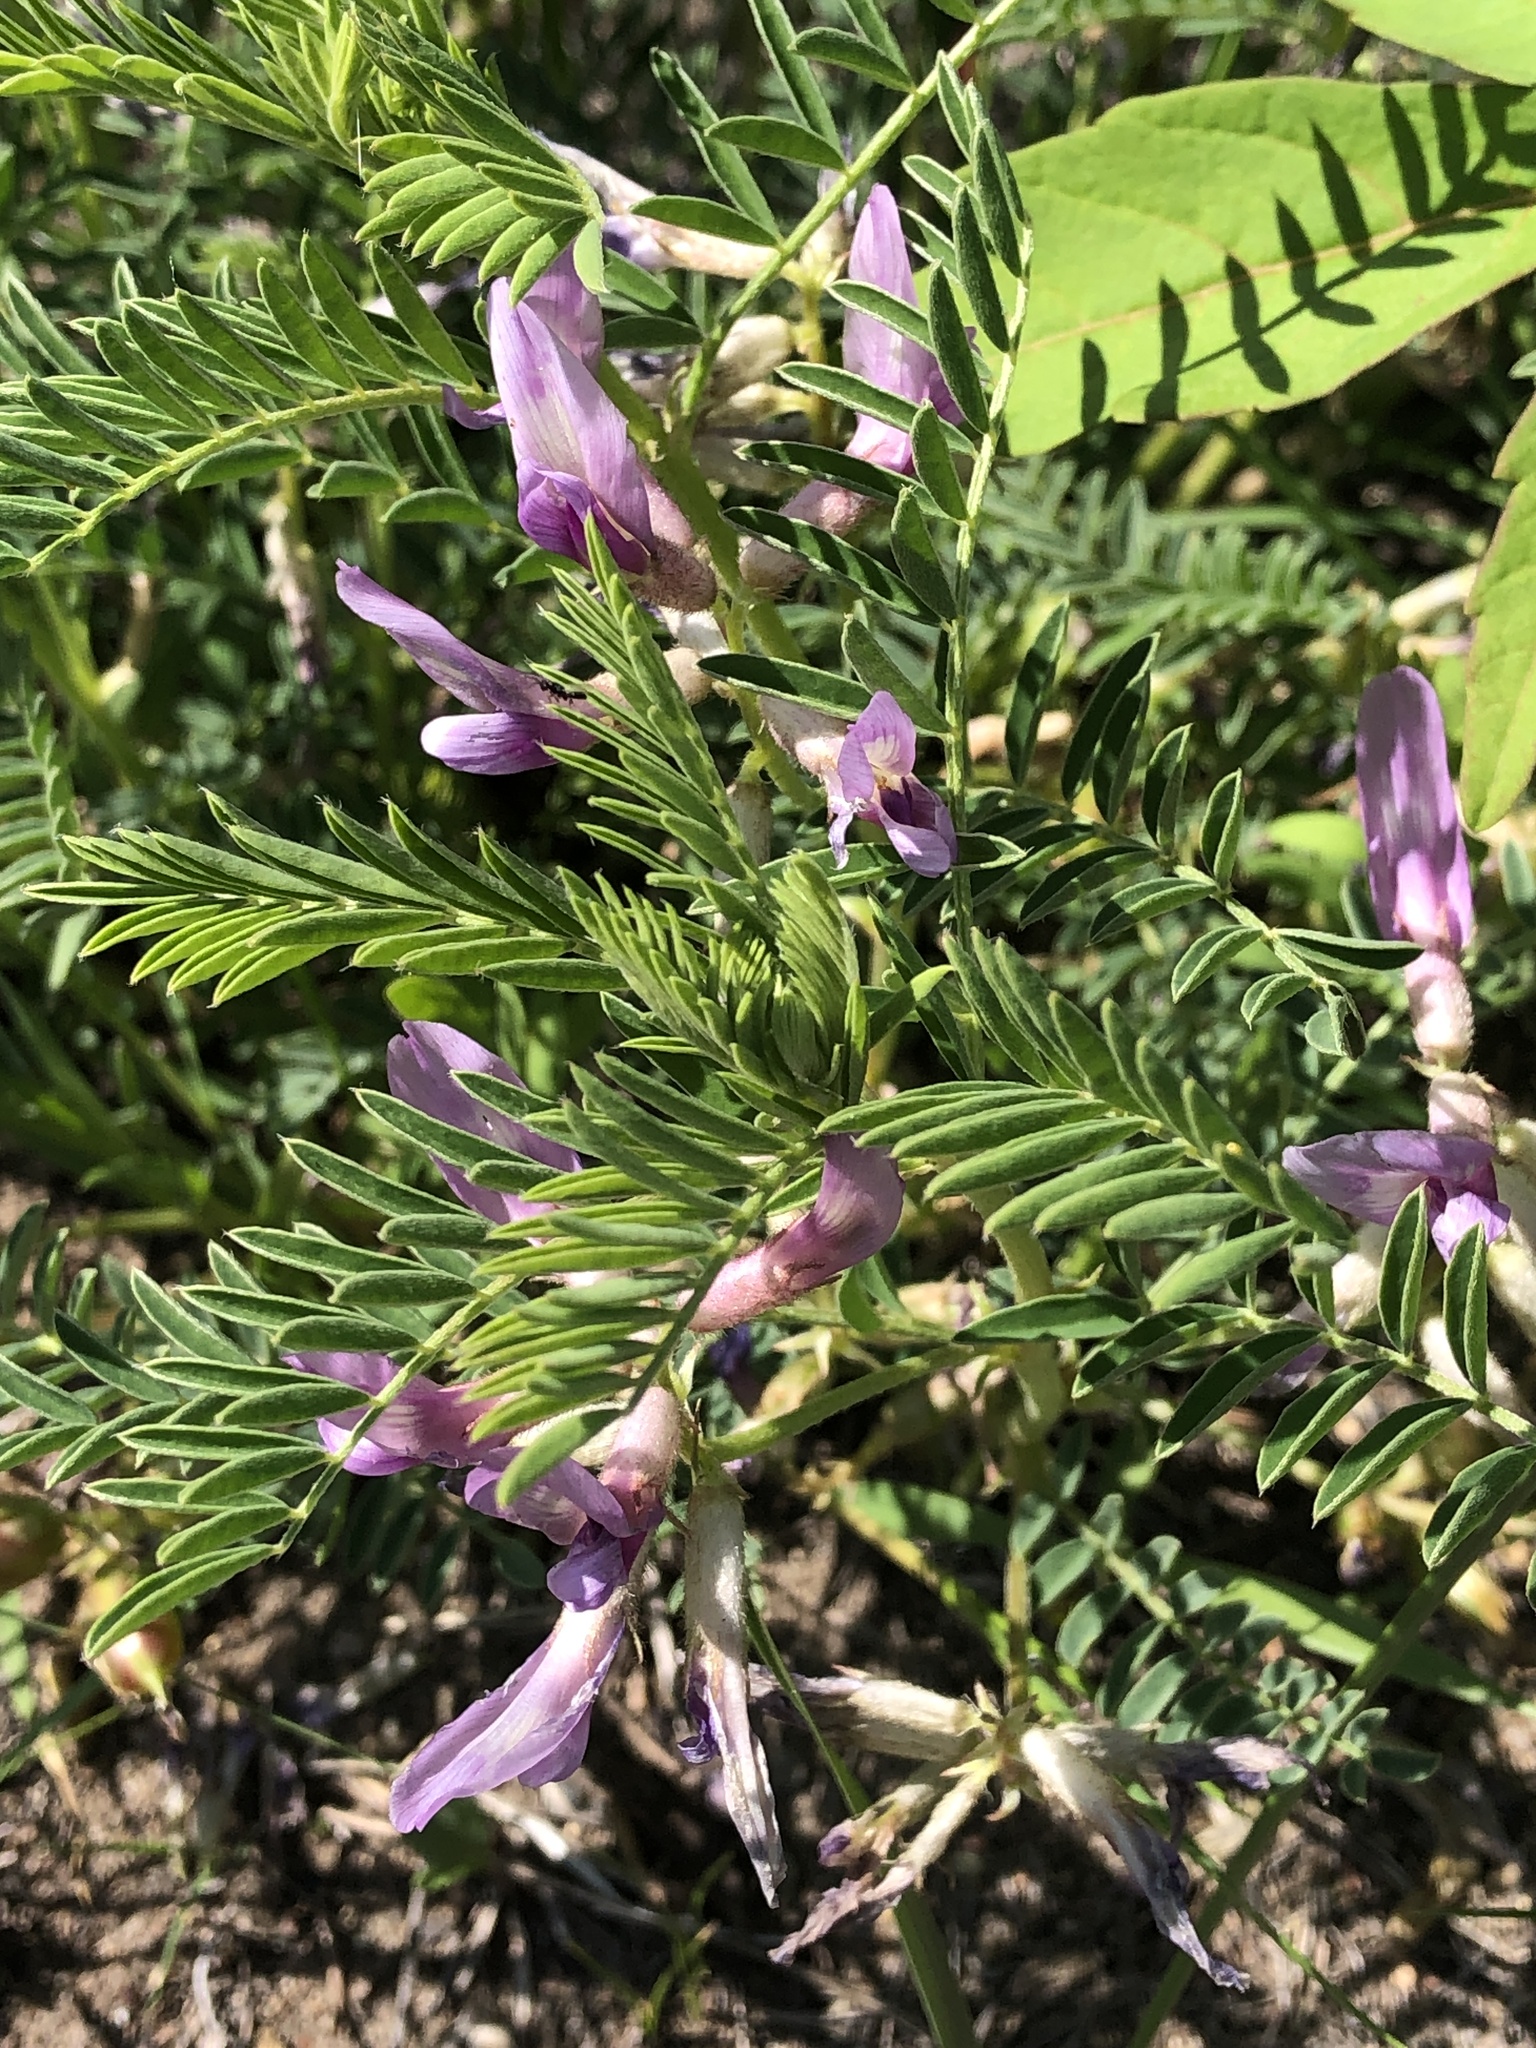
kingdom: Plantae
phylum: Tracheophyta
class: Magnoliopsida
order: Fabales
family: Fabaceae
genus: Astragalus
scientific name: Astragalus crassicarpus
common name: Ground-plum milk-vetch
